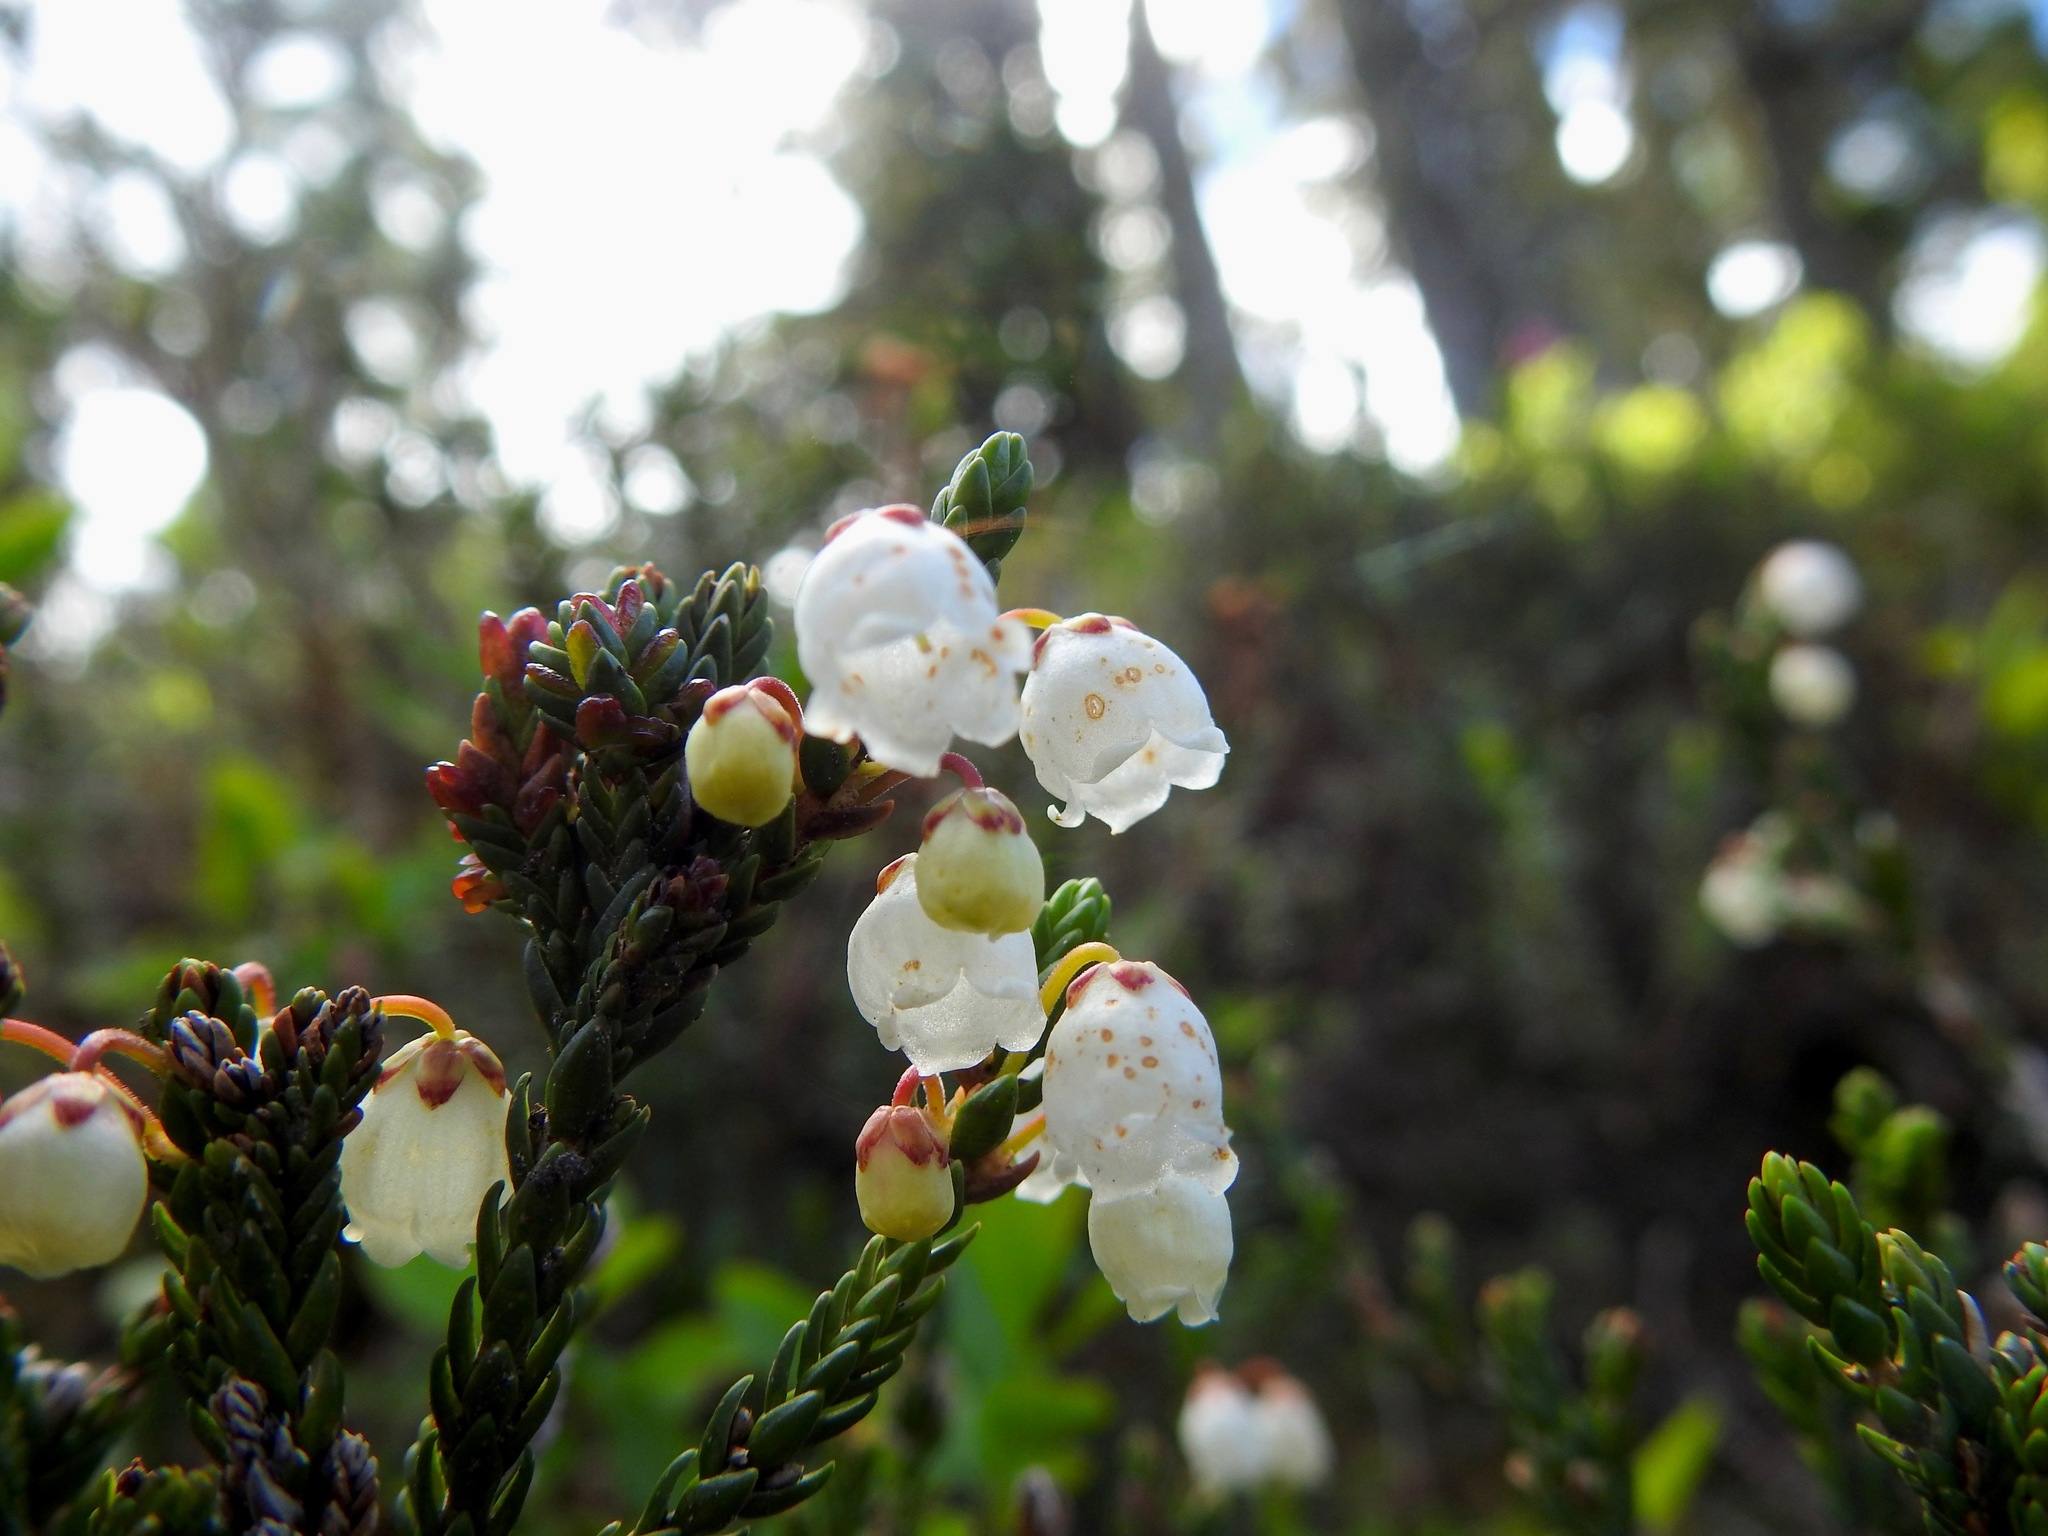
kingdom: Plantae
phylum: Tracheophyta
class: Magnoliopsida
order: Ericales
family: Ericaceae
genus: Cassiope
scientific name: Cassiope mertensiana
